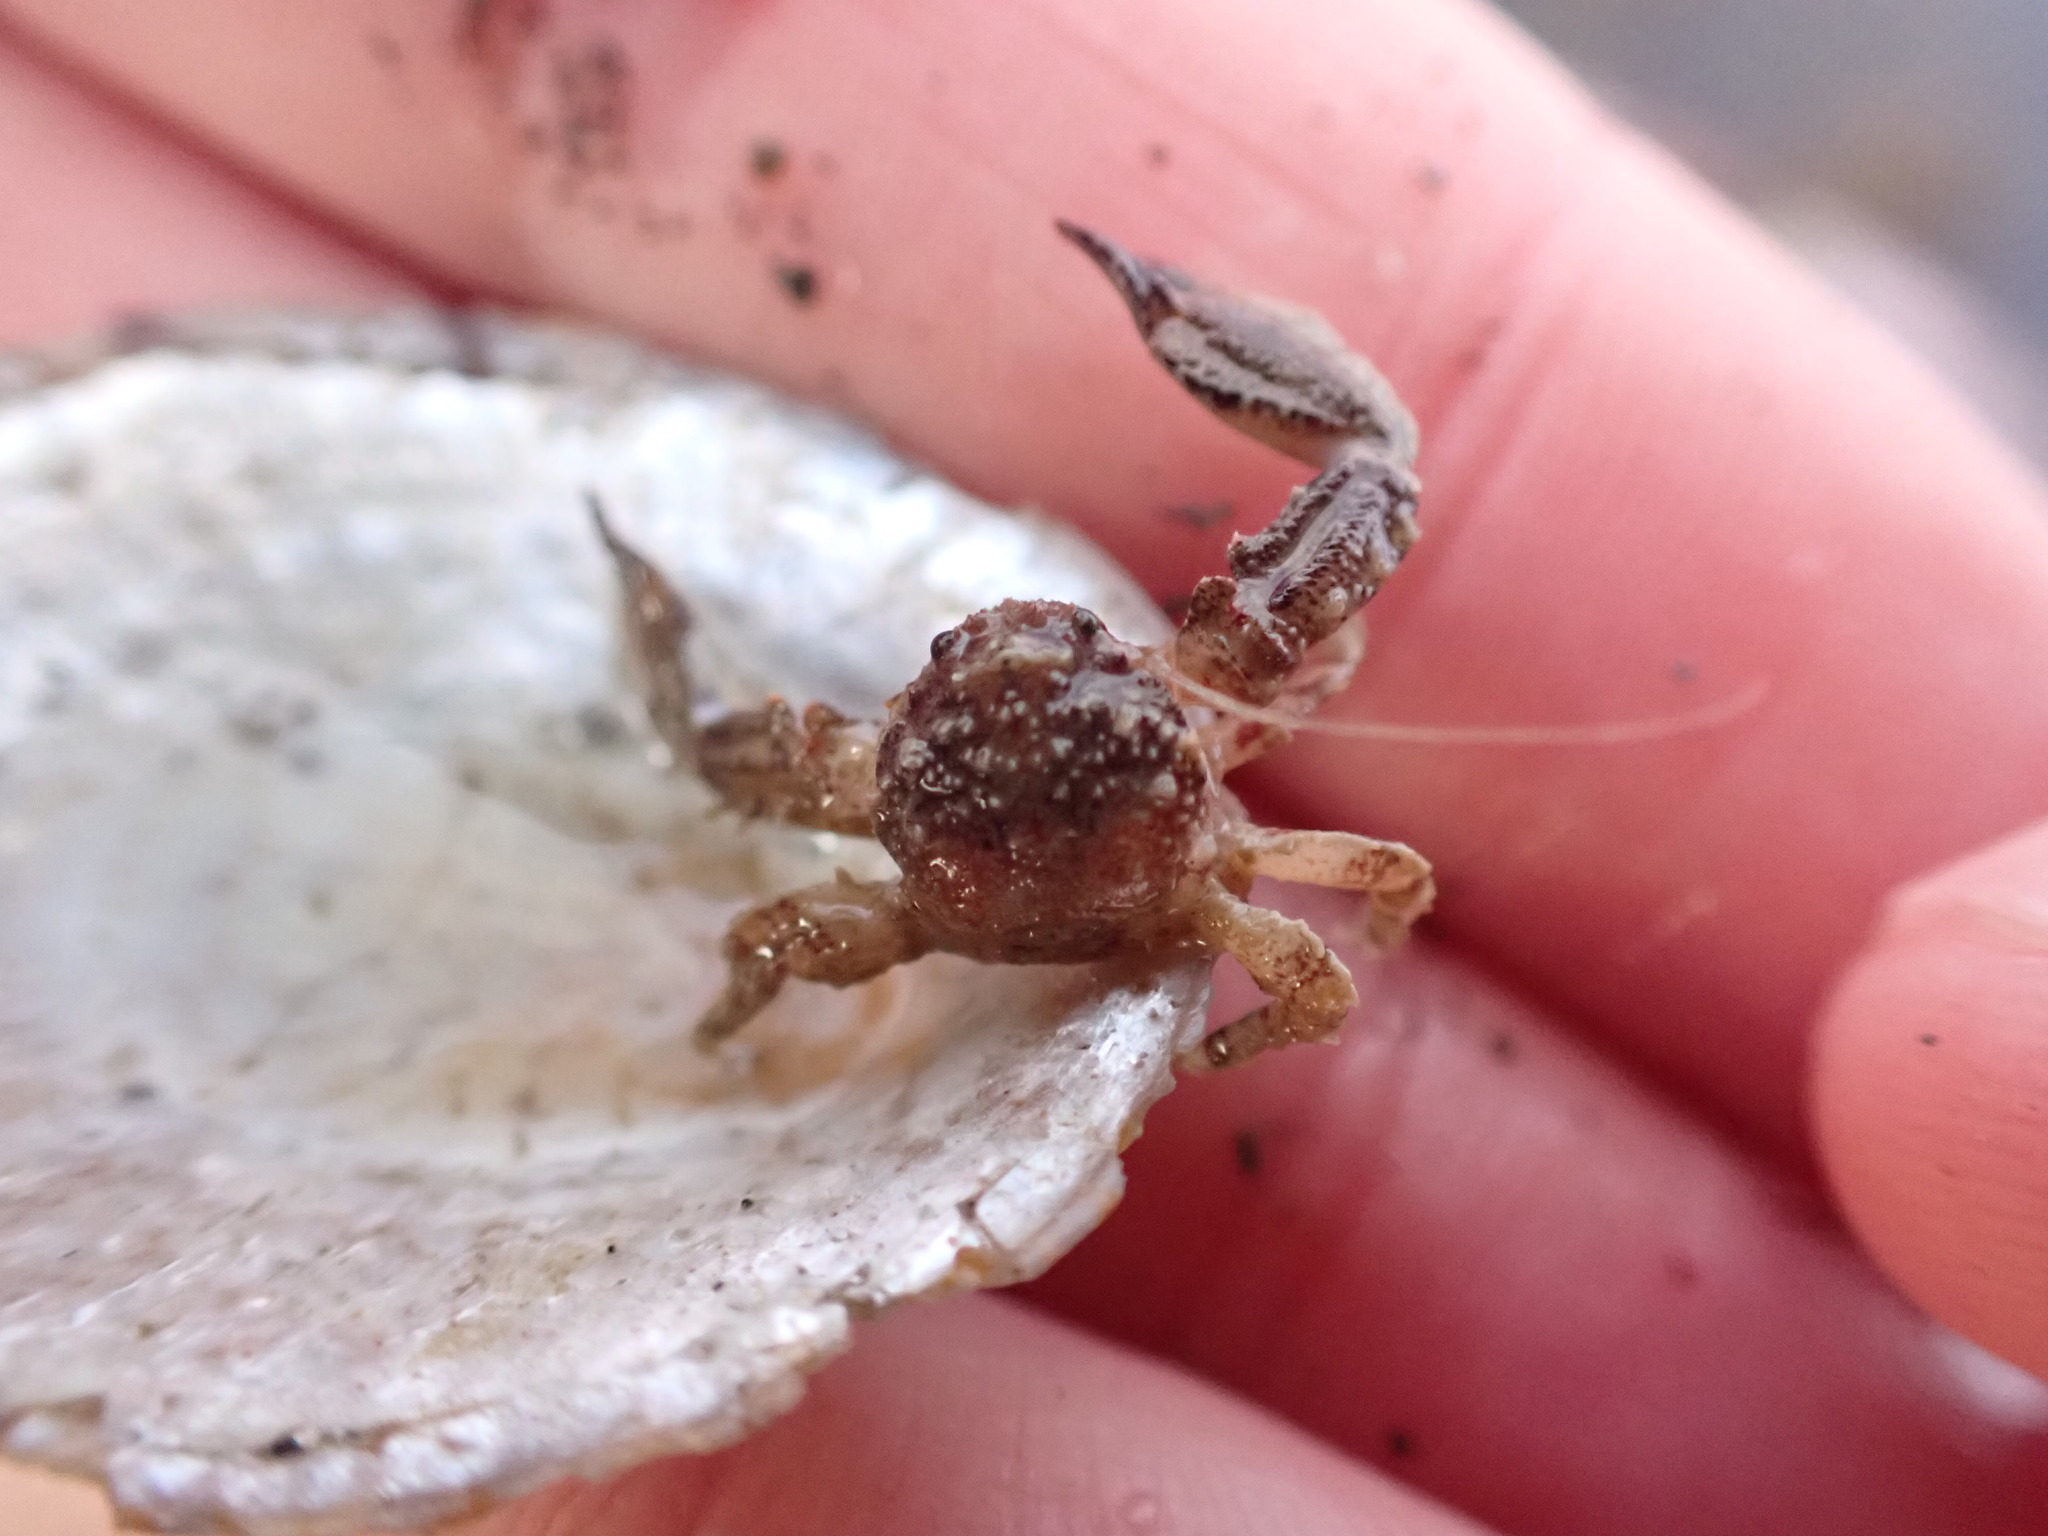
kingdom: Animalia
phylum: Arthropoda
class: Malacostraca
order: Decapoda
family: Porcellanidae
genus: Petrolisthes
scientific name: Petrolisthes novaezelandiae
